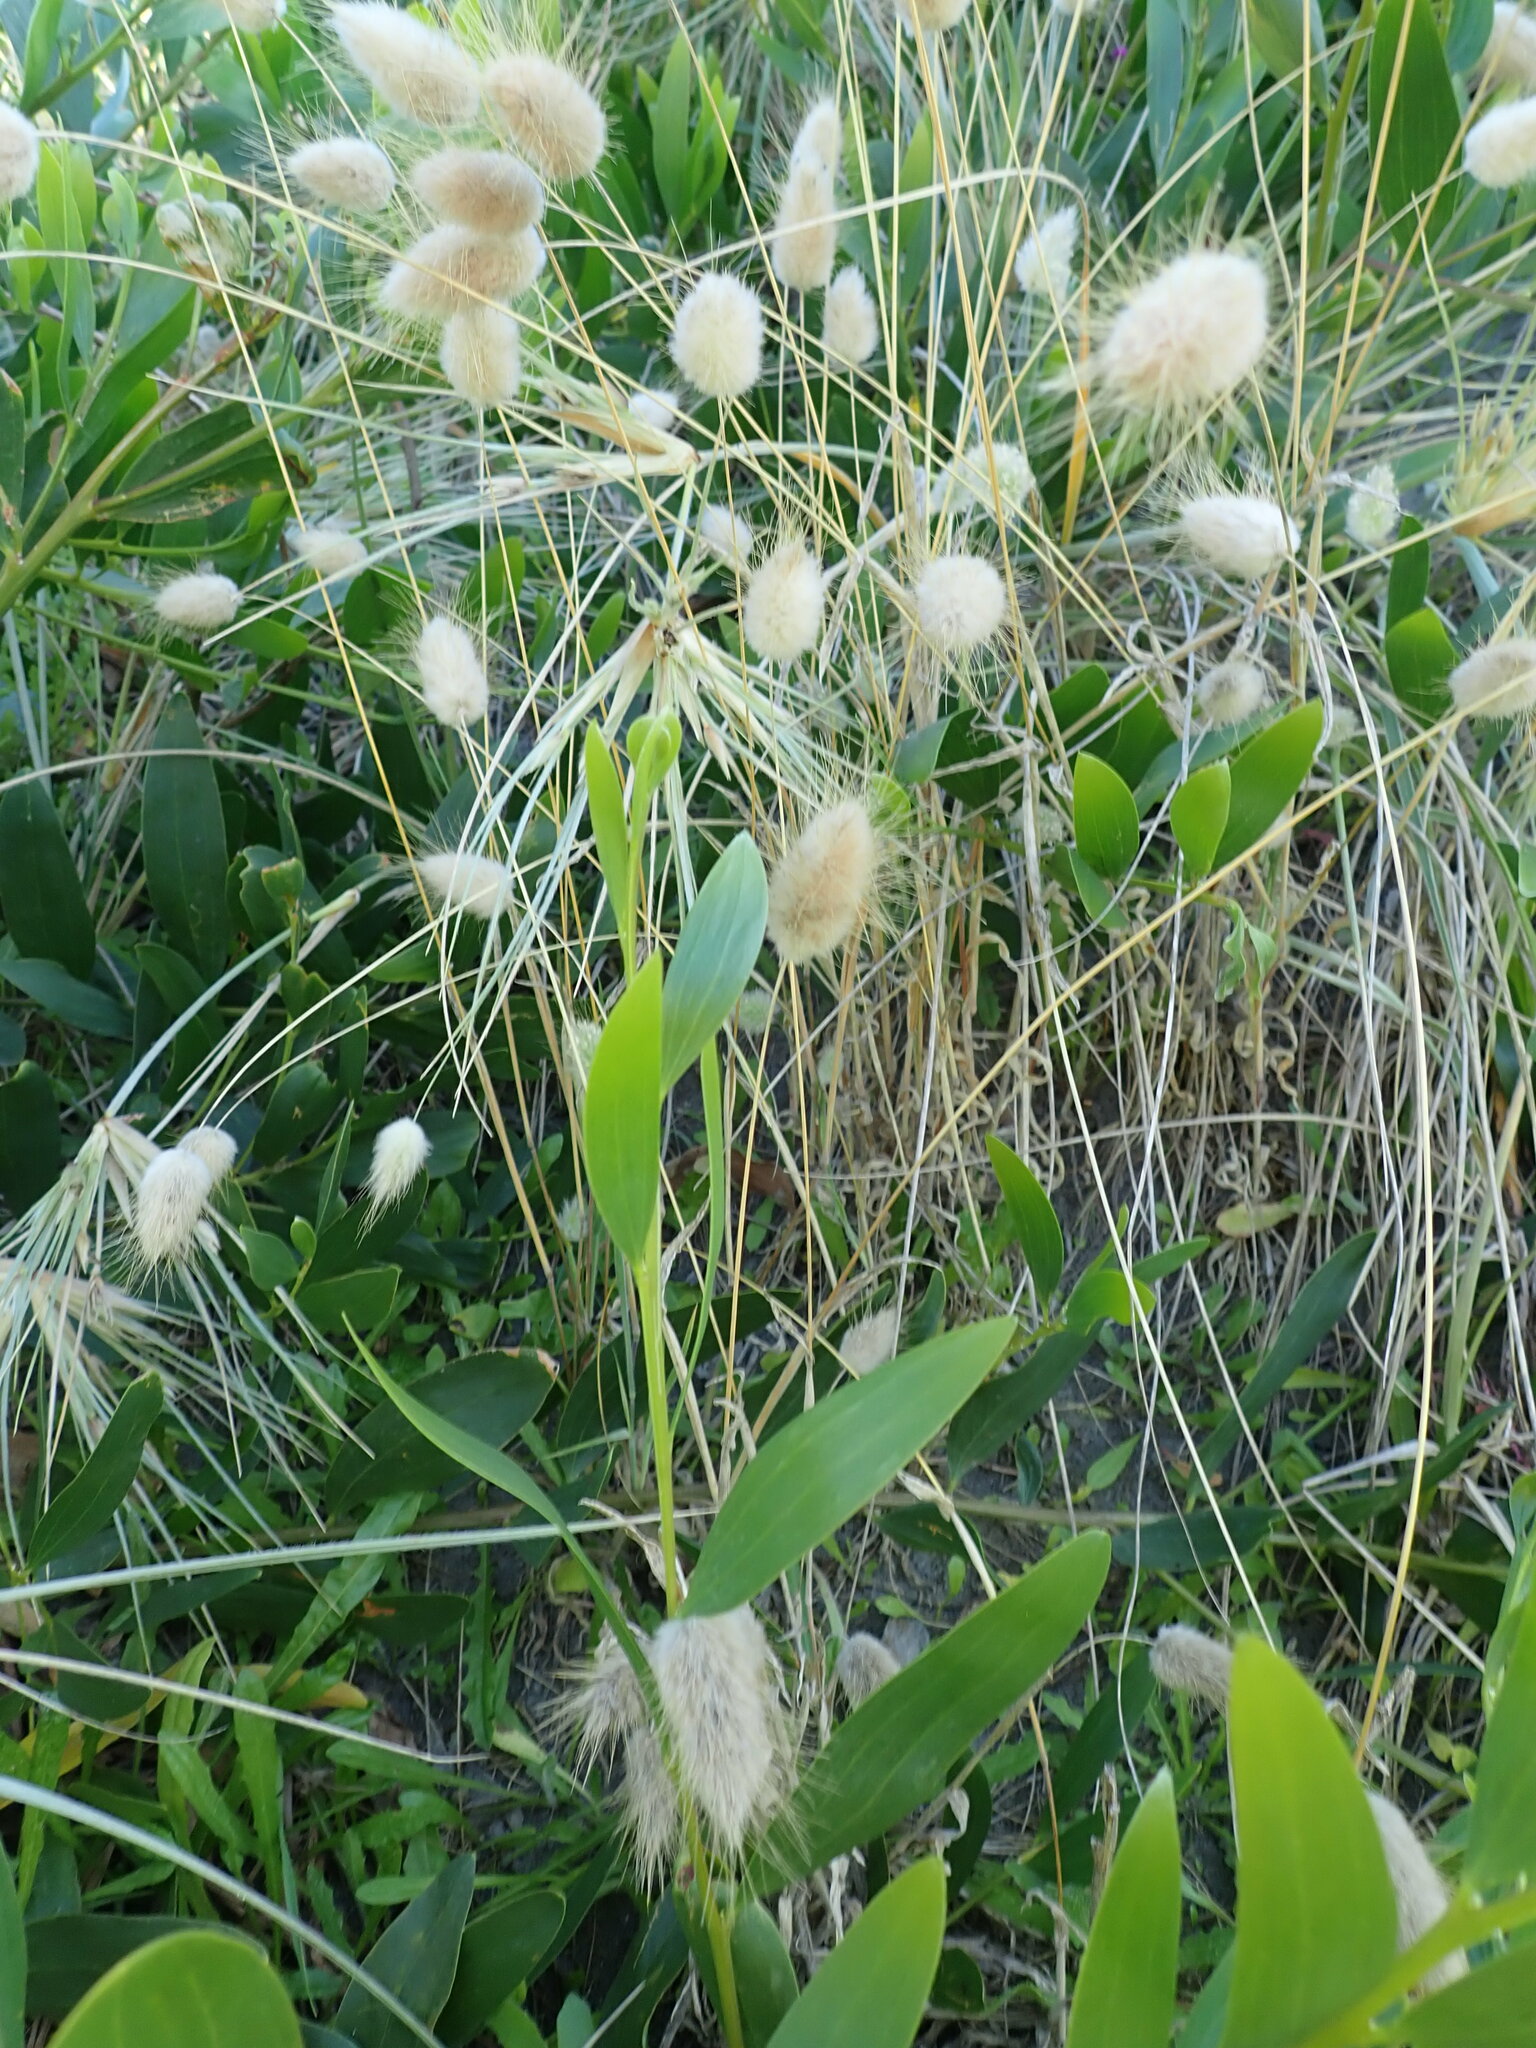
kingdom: Plantae
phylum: Tracheophyta
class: Liliopsida
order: Poales
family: Poaceae
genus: Lagurus
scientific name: Lagurus ovatus
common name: Hare's-tail
